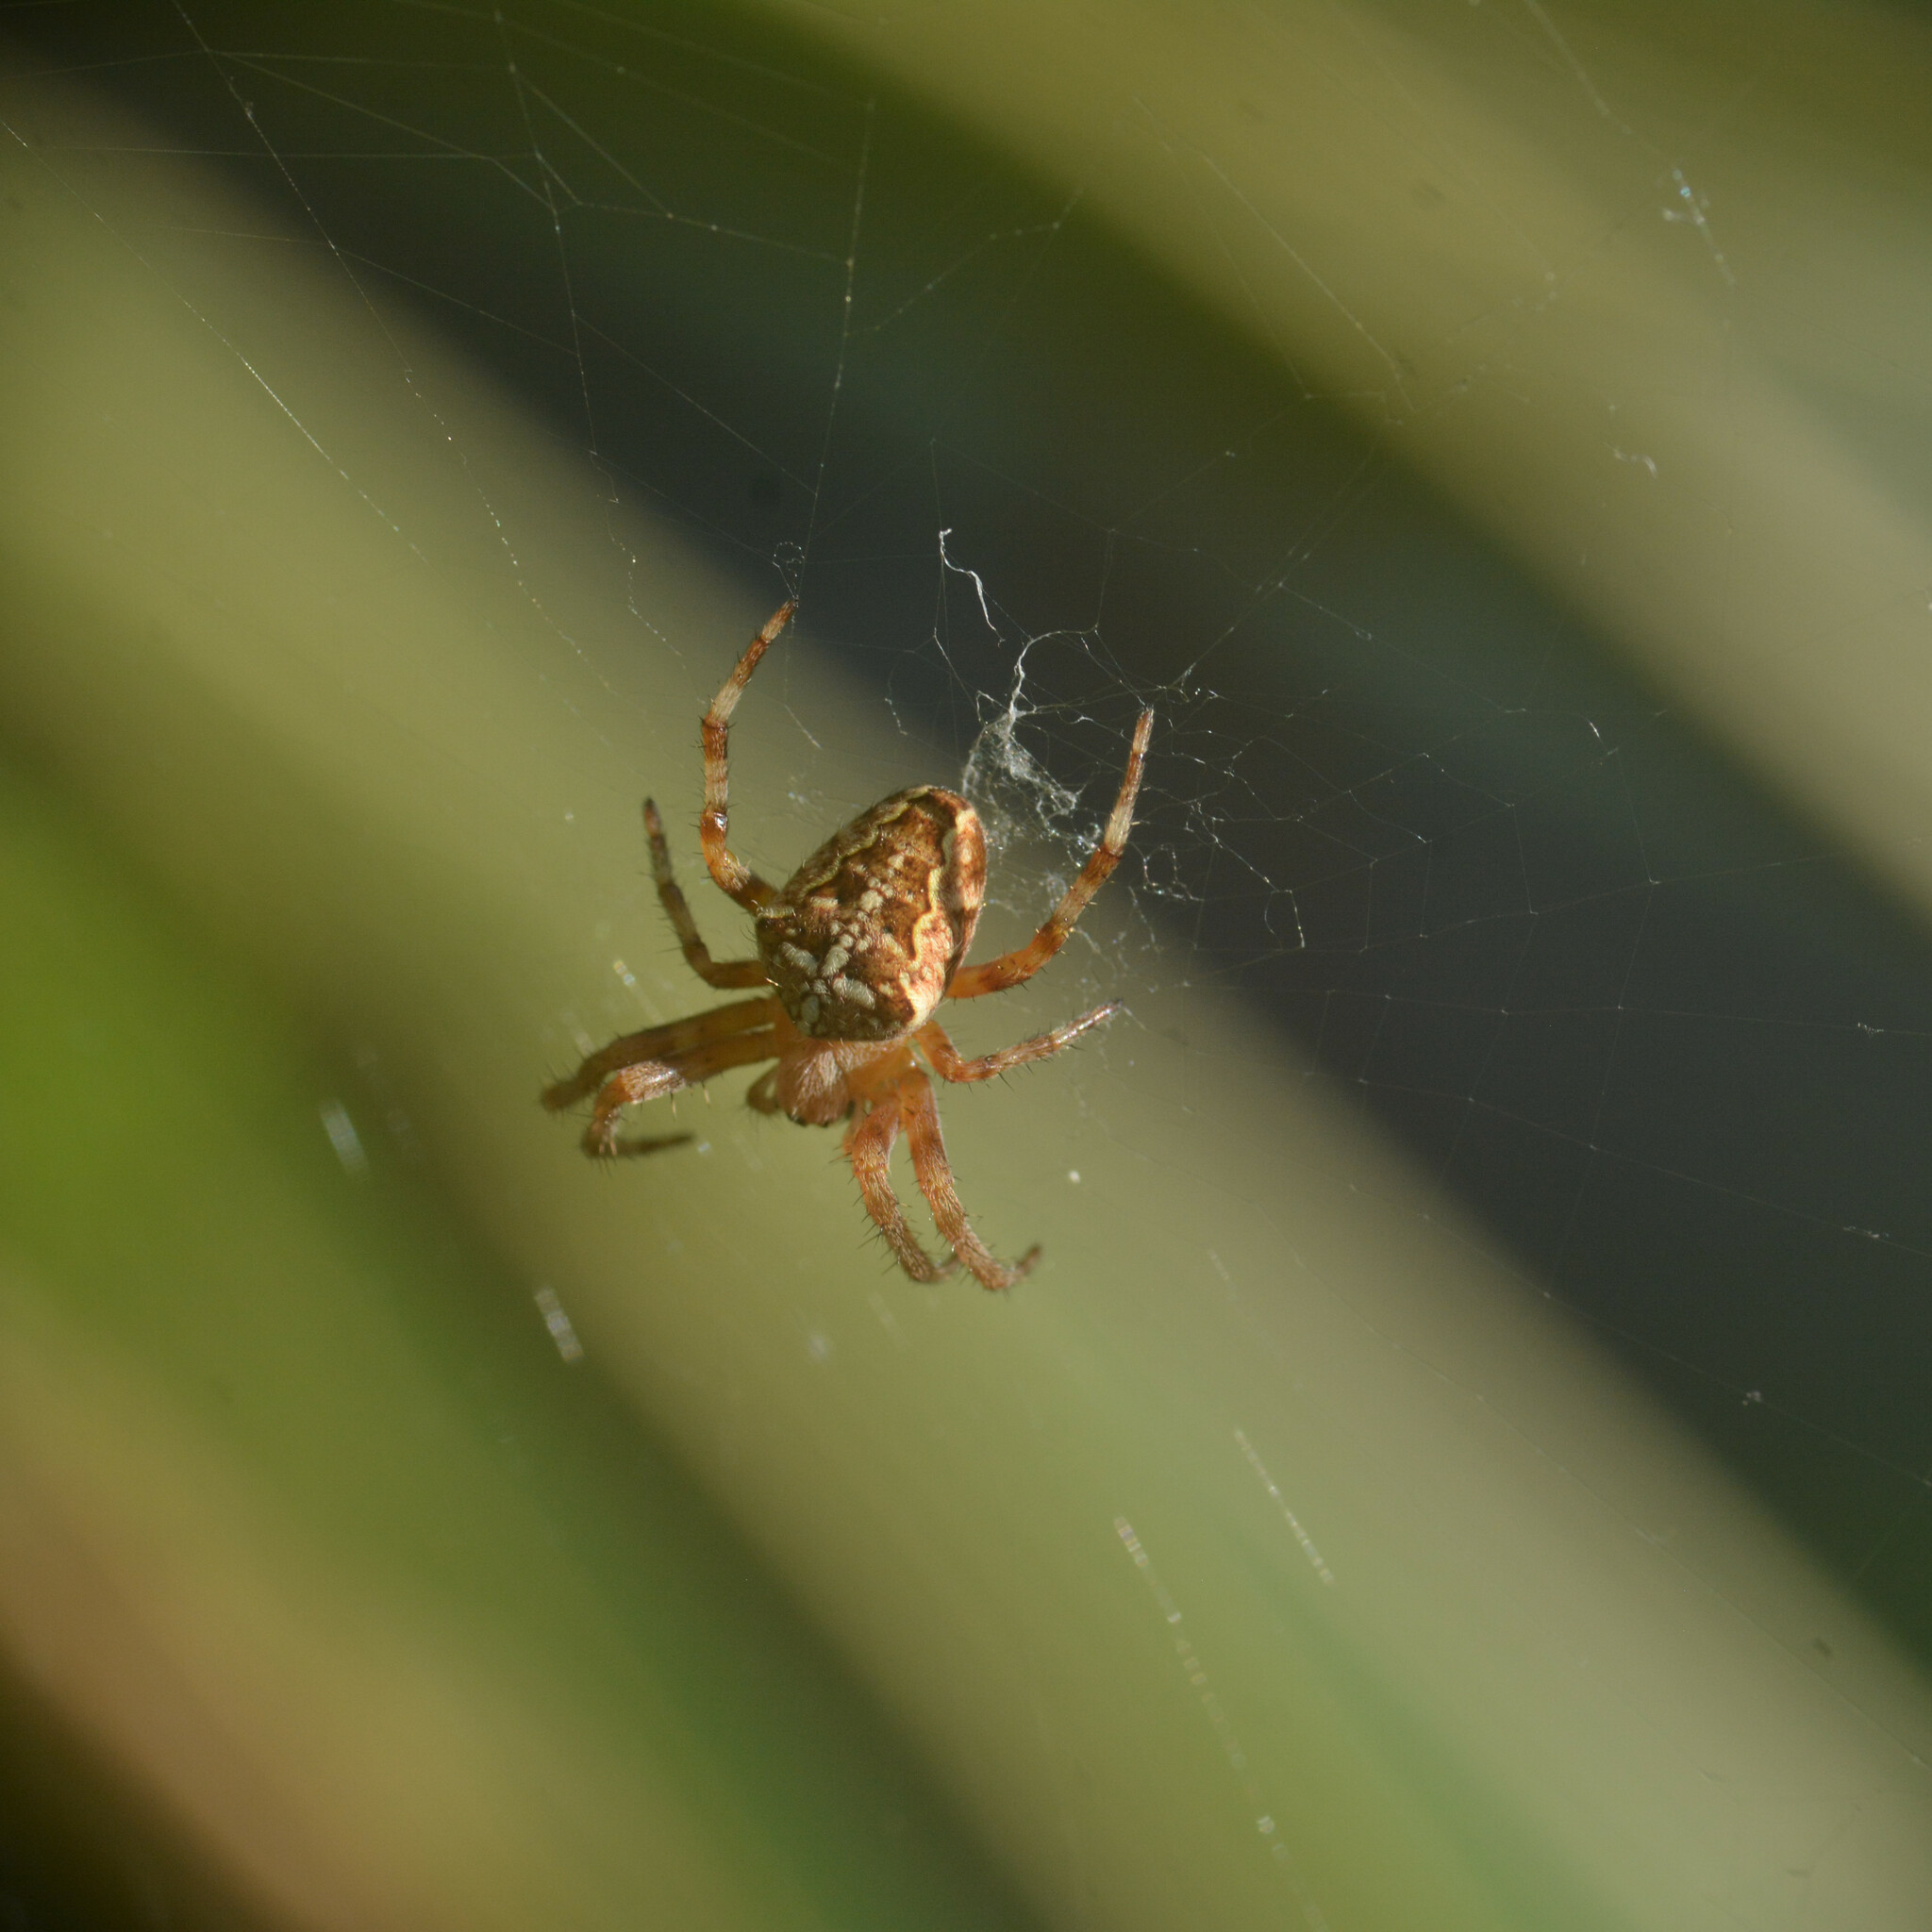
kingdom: Animalia
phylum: Arthropoda
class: Arachnida
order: Araneae
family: Araneidae
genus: Araneus
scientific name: Araneus diadematus
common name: Cross orbweaver
